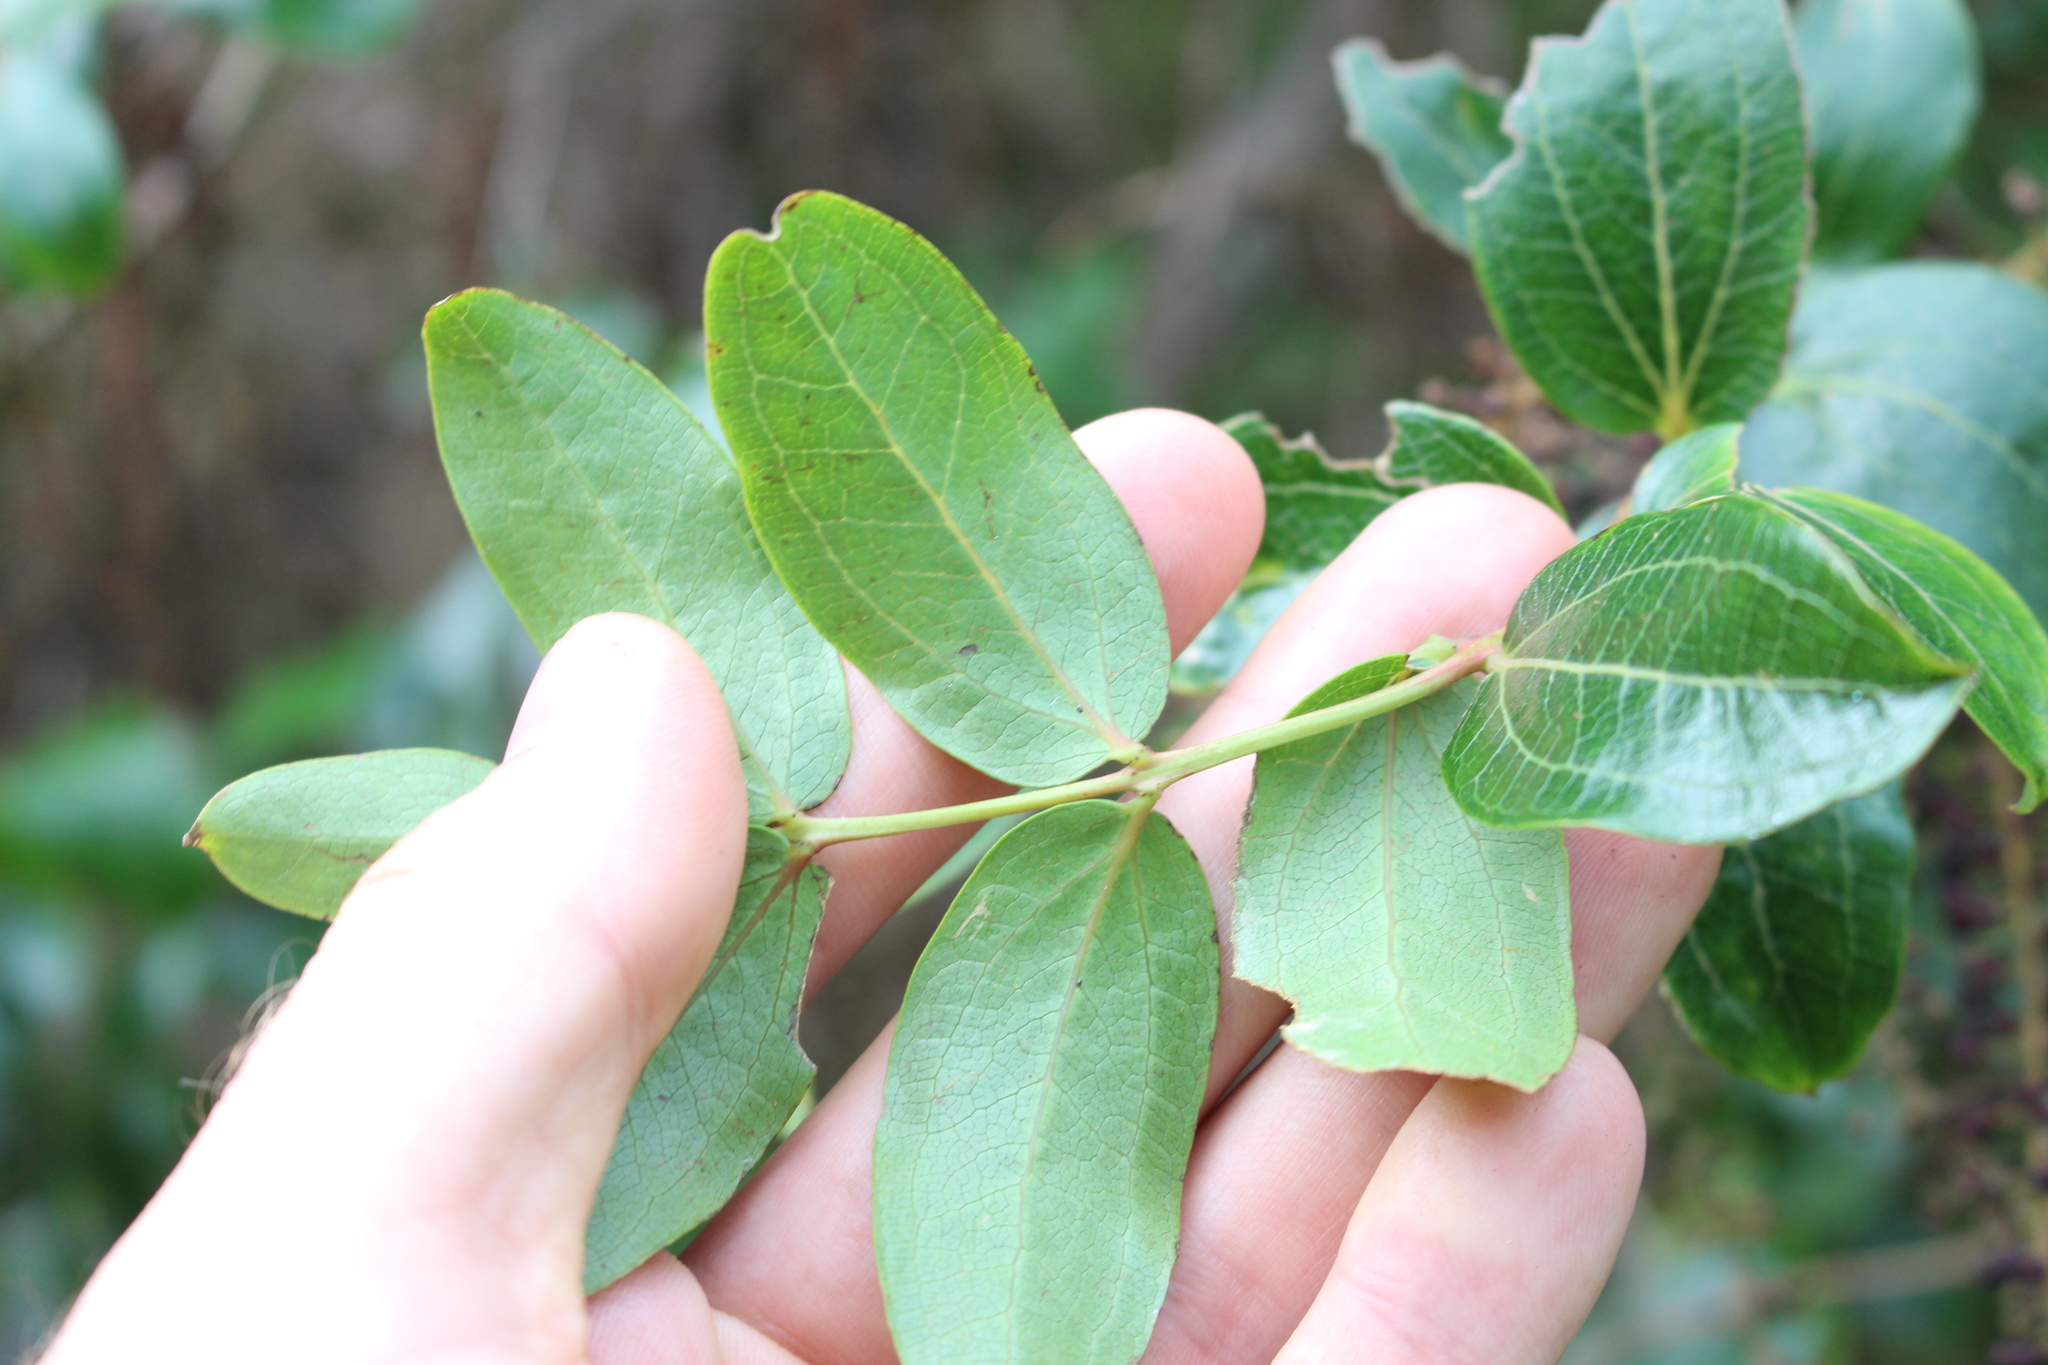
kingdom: Plantae
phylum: Tracheophyta
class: Magnoliopsida
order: Cucurbitales
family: Coriariaceae
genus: Coriaria
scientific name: Coriaria arborea
